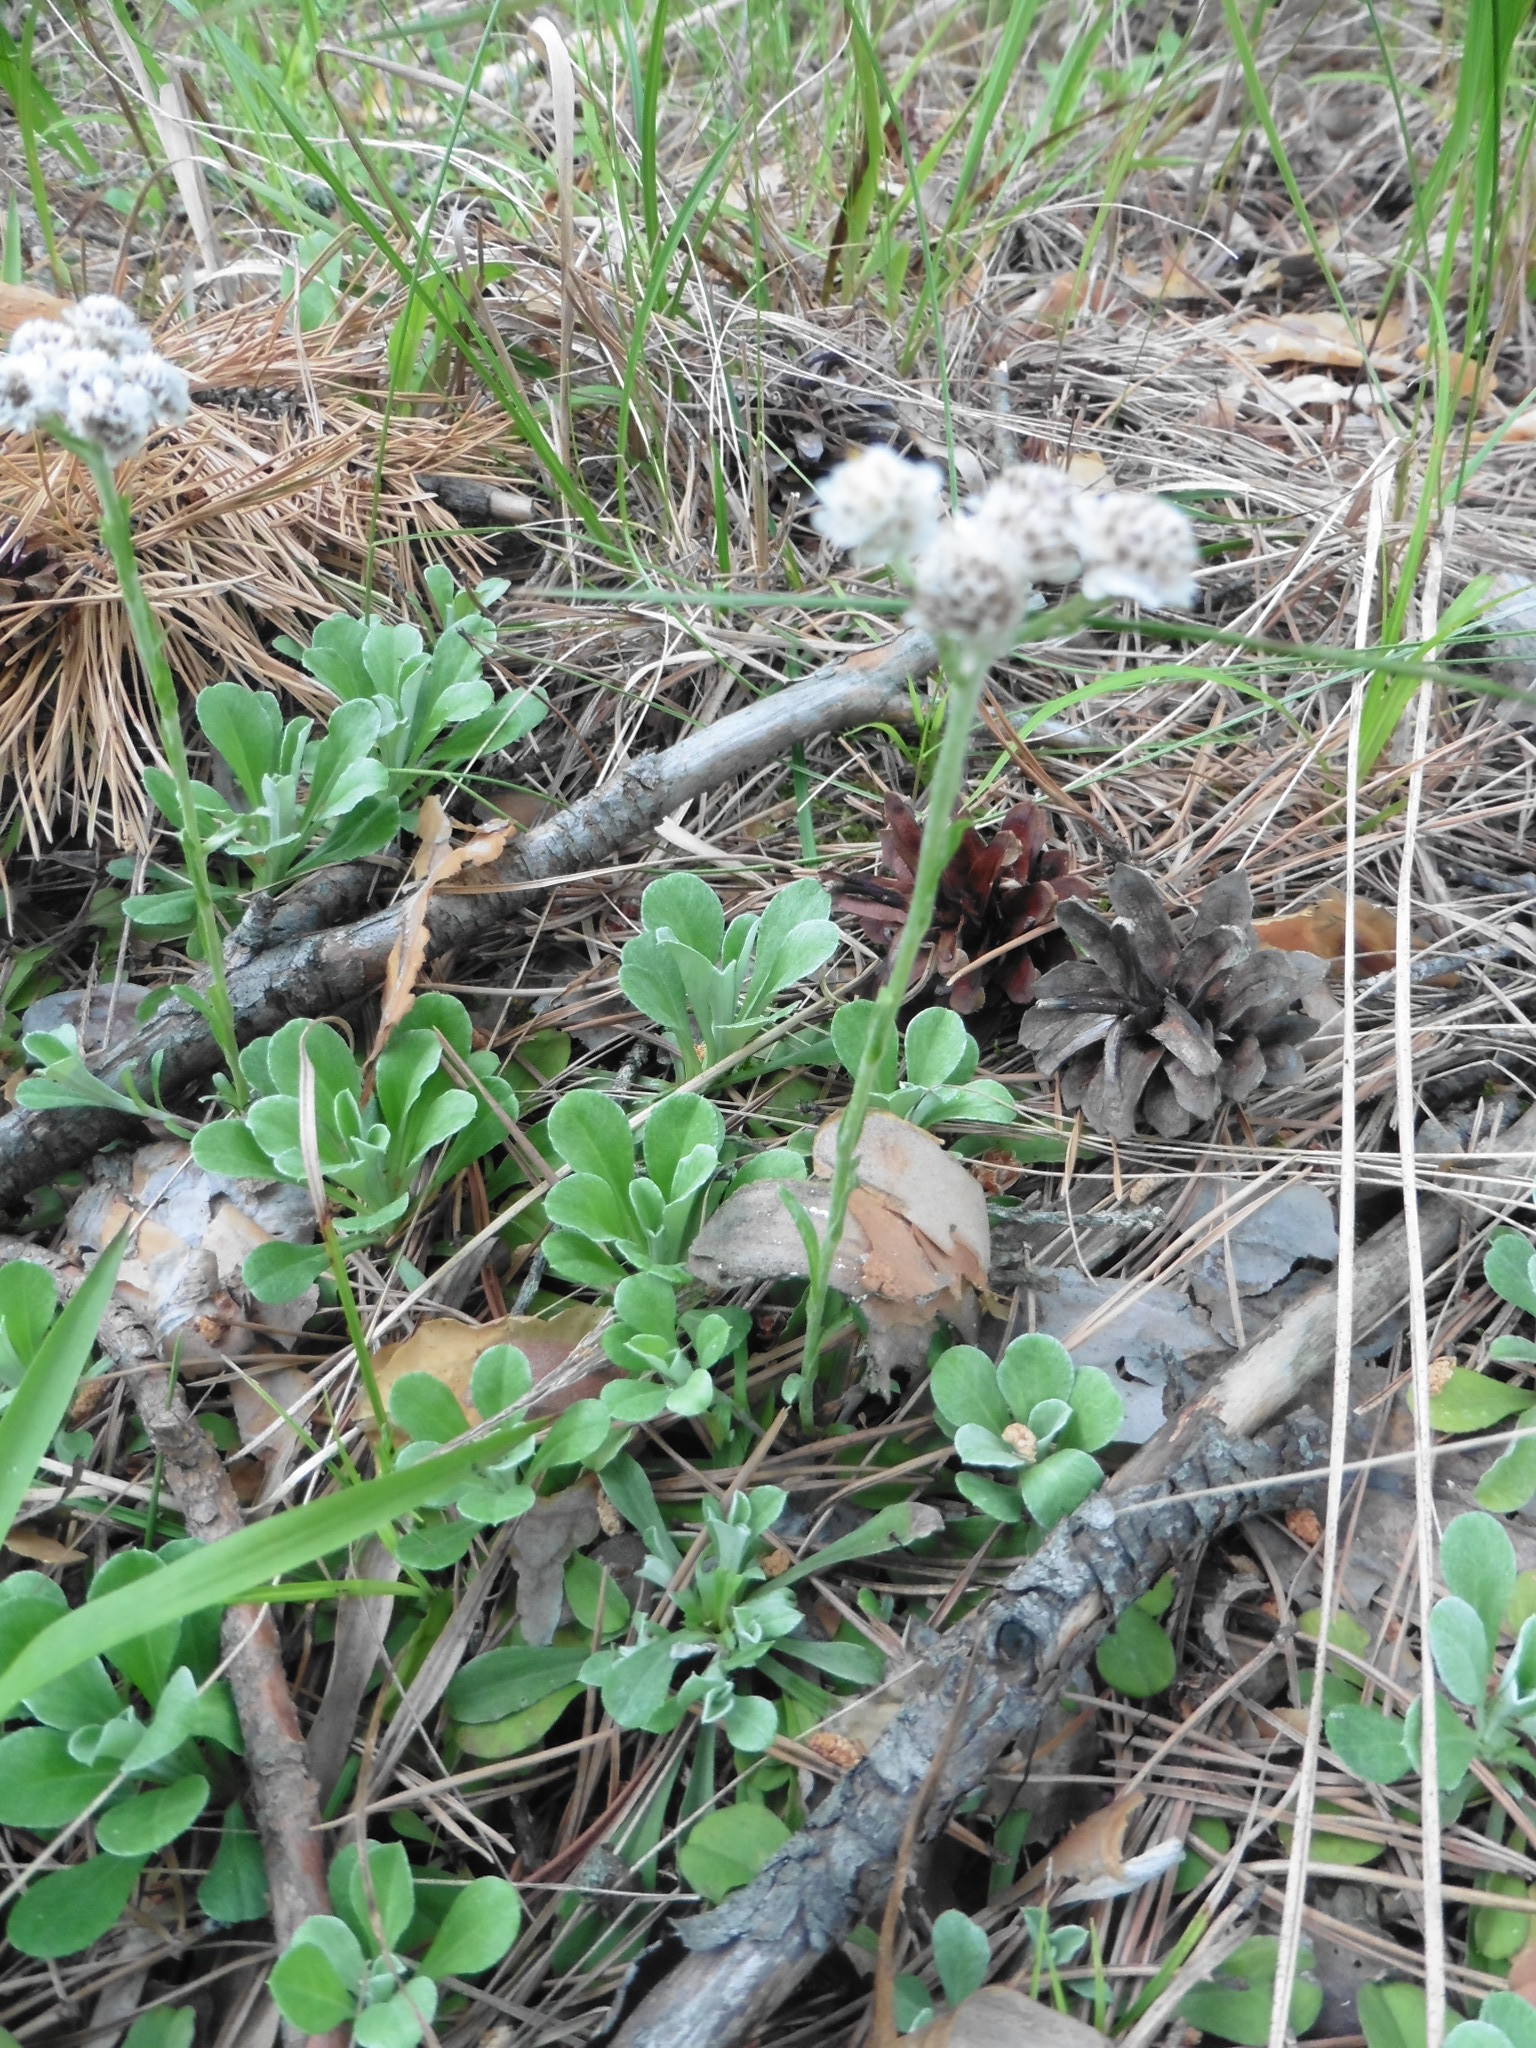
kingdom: Plantae
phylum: Tracheophyta
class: Magnoliopsida
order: Asterales
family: Asteraceae
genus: Antennaria
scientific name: Antennaria dioica
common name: Mountain everlasting
